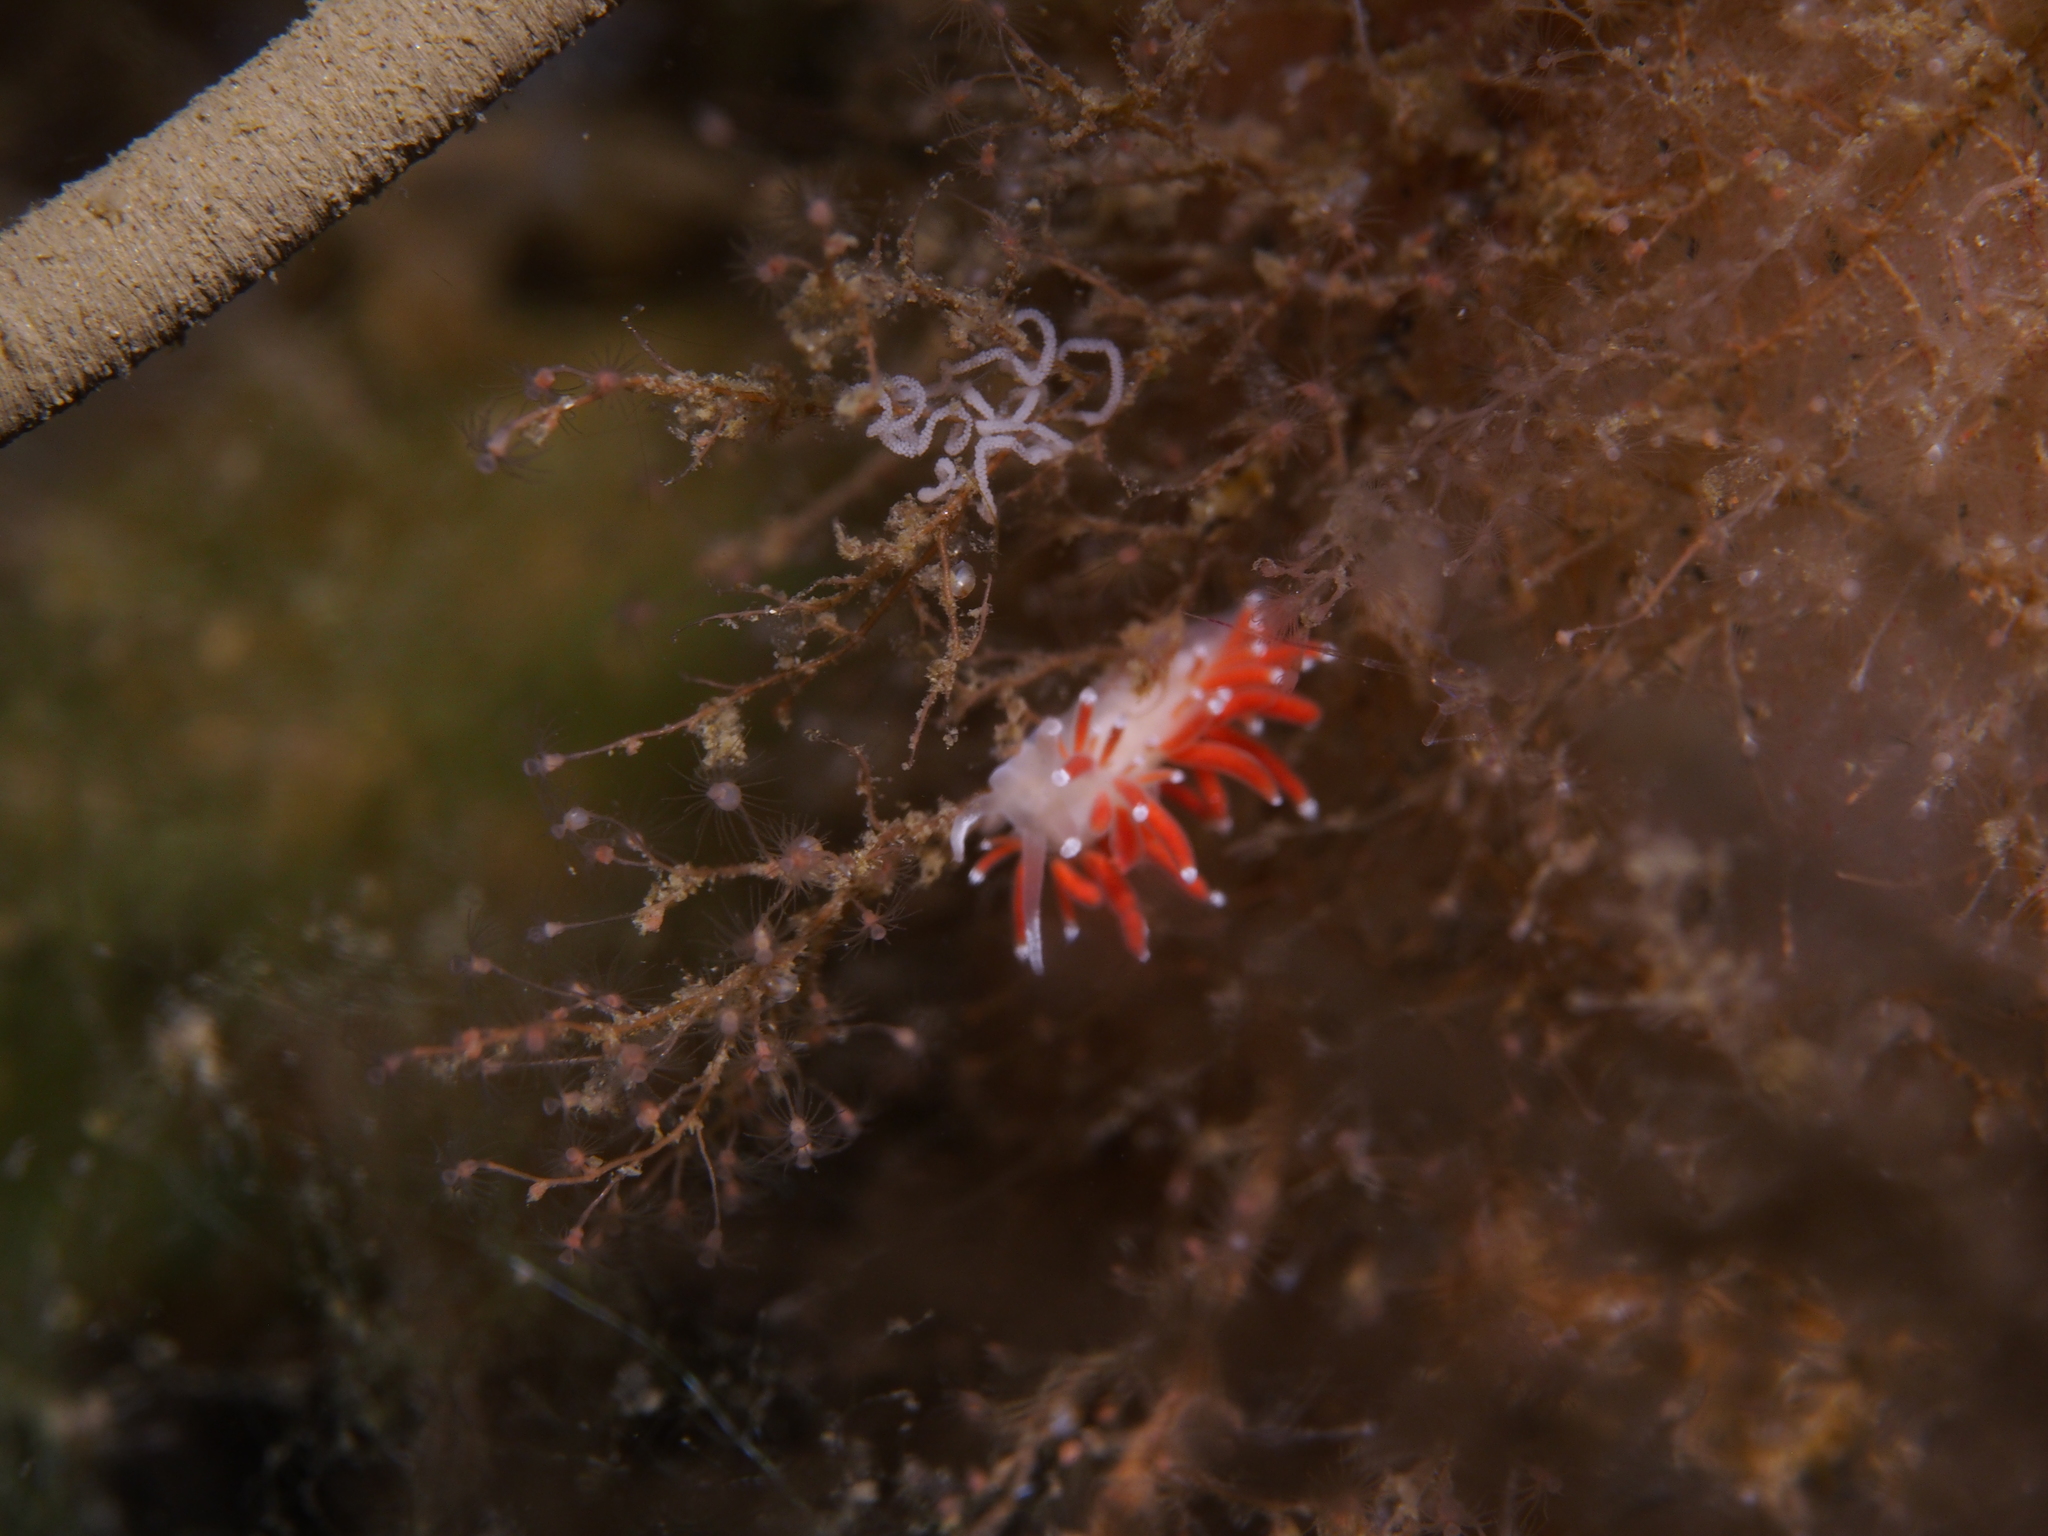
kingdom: Animalia
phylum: Mollusca
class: Gastropoda
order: Nudibranchia
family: Coryphellidae
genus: Coryphella
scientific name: Coryphella gracilis
